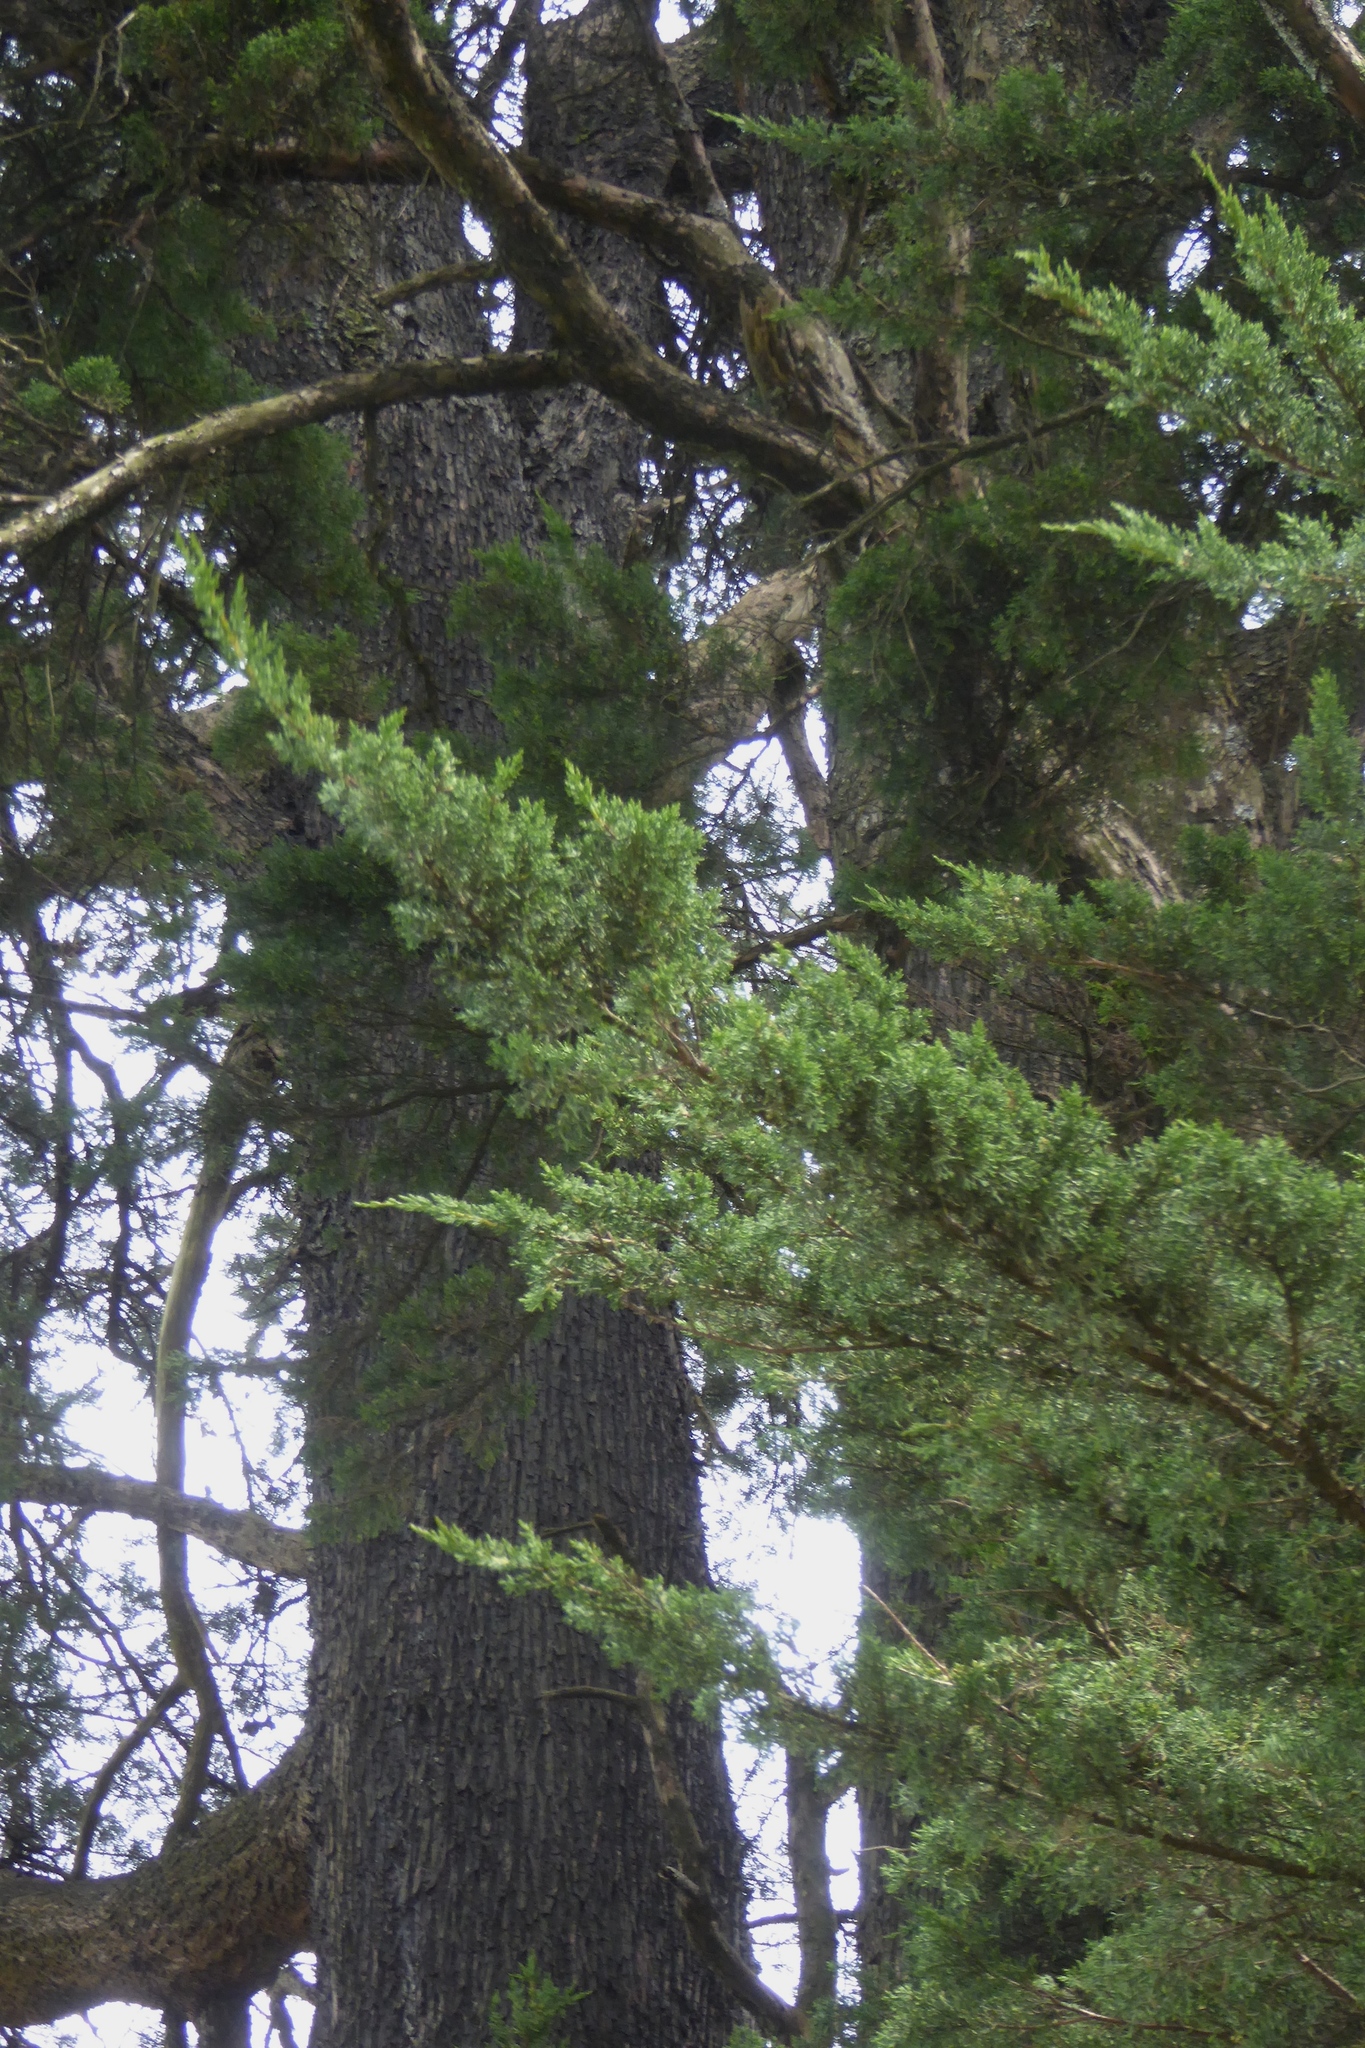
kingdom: Plantae
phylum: Tracheophyta
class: Pinopsida
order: Pinales
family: Cupressaceae
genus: Cupressus
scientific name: Cupressus macrocarpa
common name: Monterey cypress
